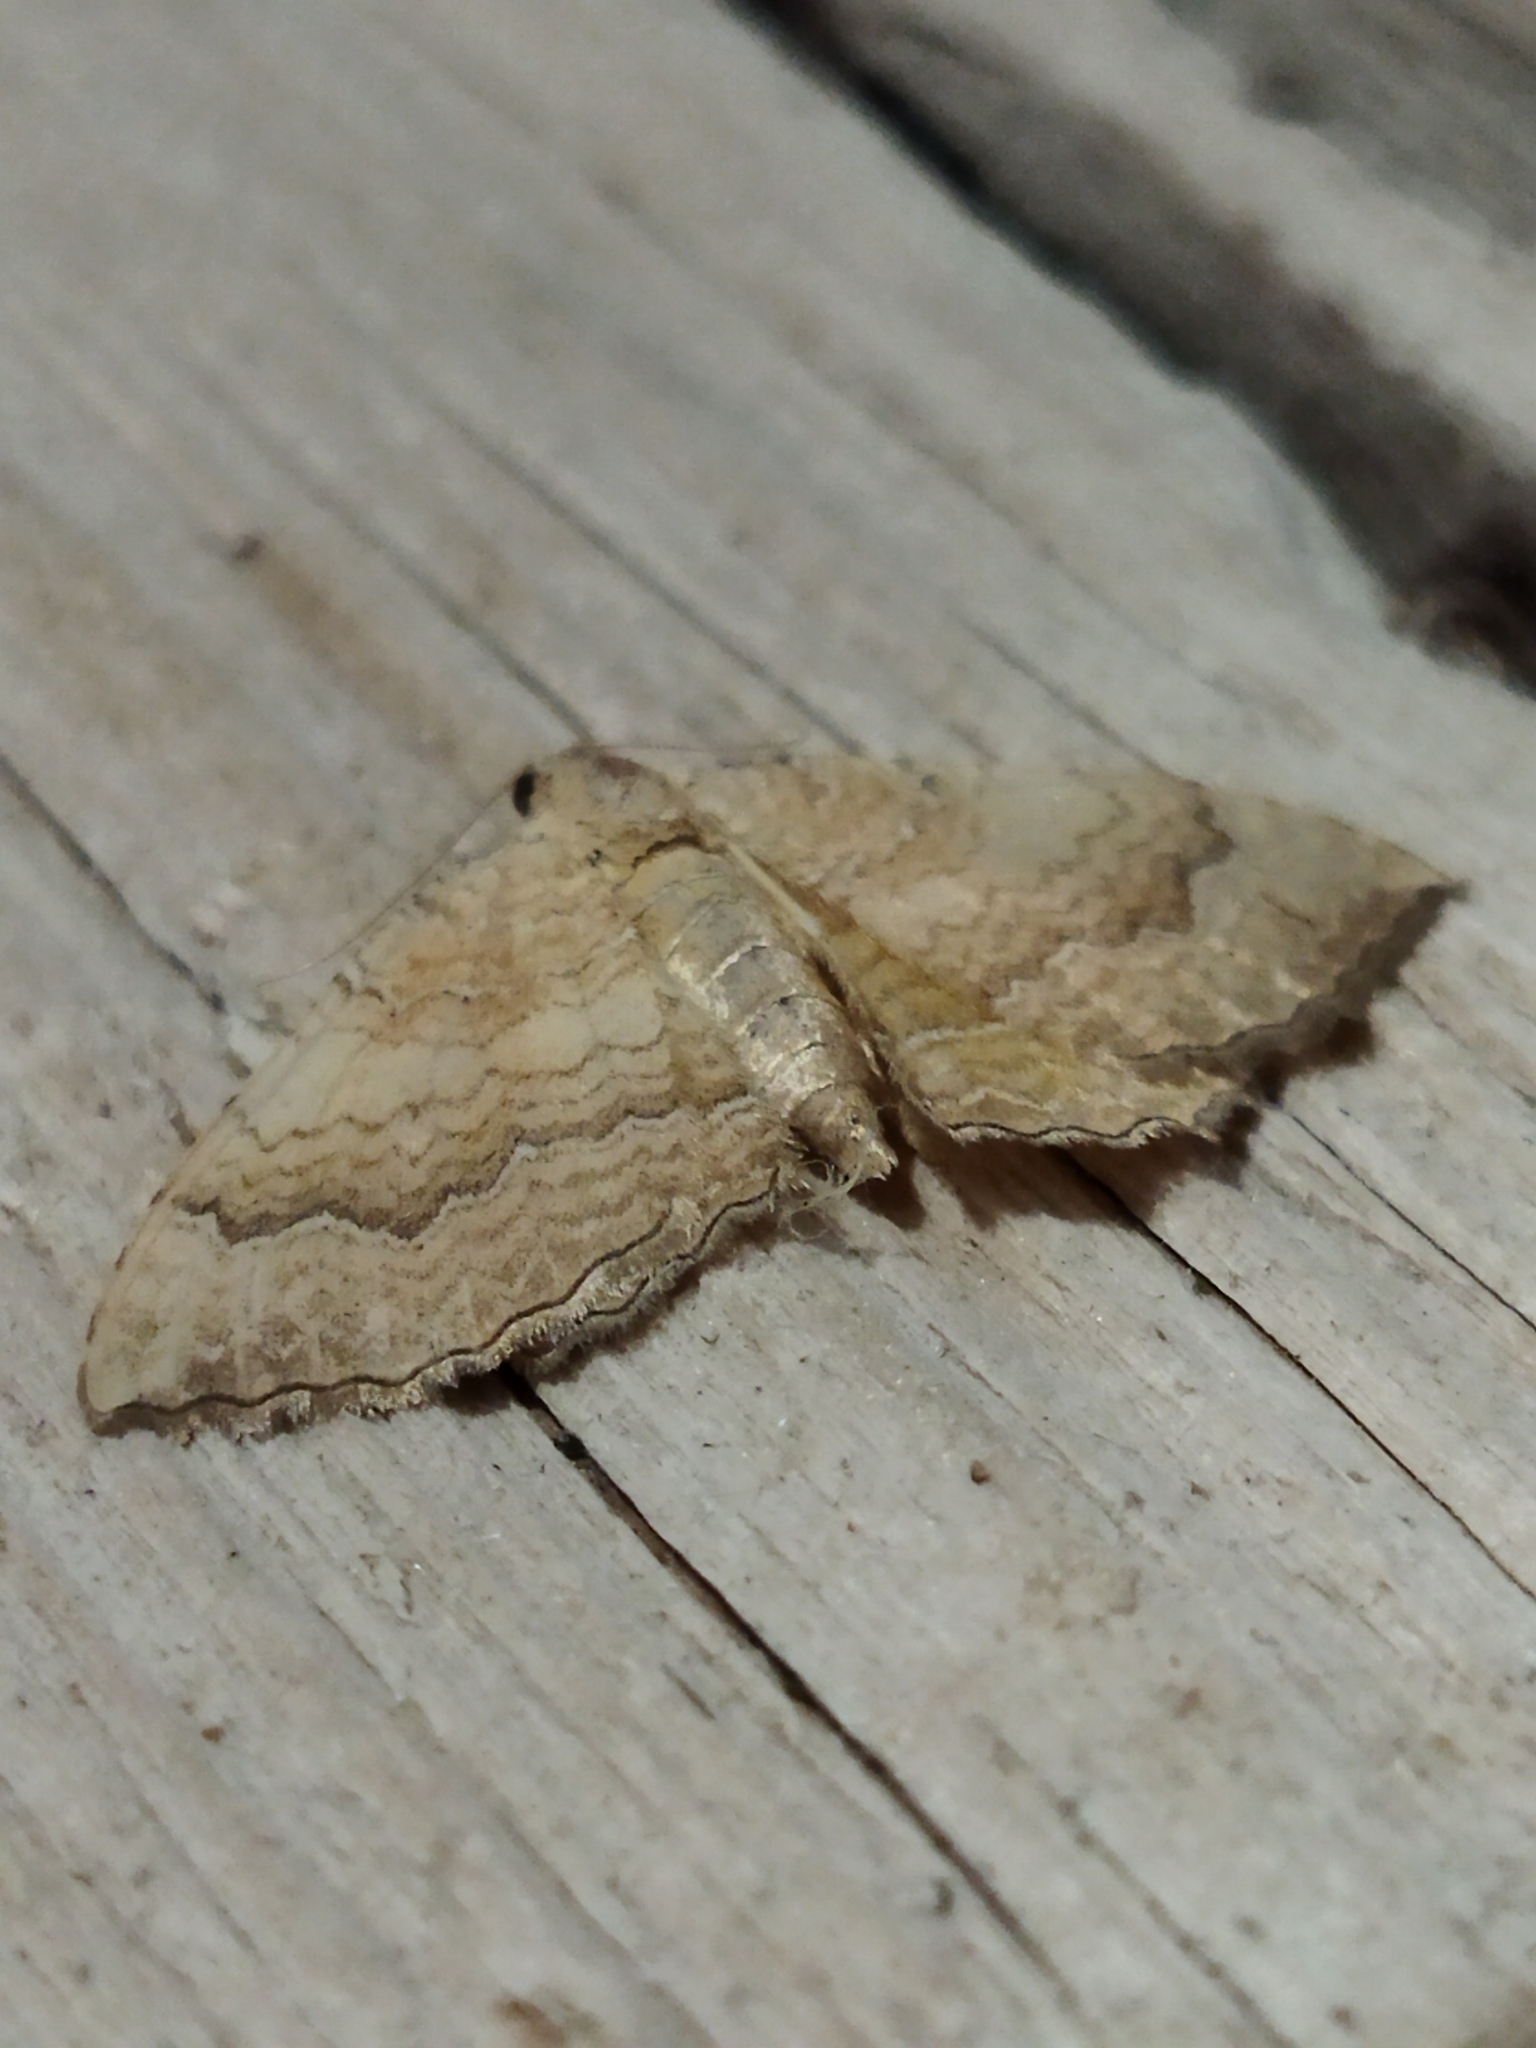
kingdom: Animalia
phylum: Arthropoda
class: Insecta
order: Lepidoptera
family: Geometridae
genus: Camptogramma
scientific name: Camptogramma bilineata
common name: Yellow shell
